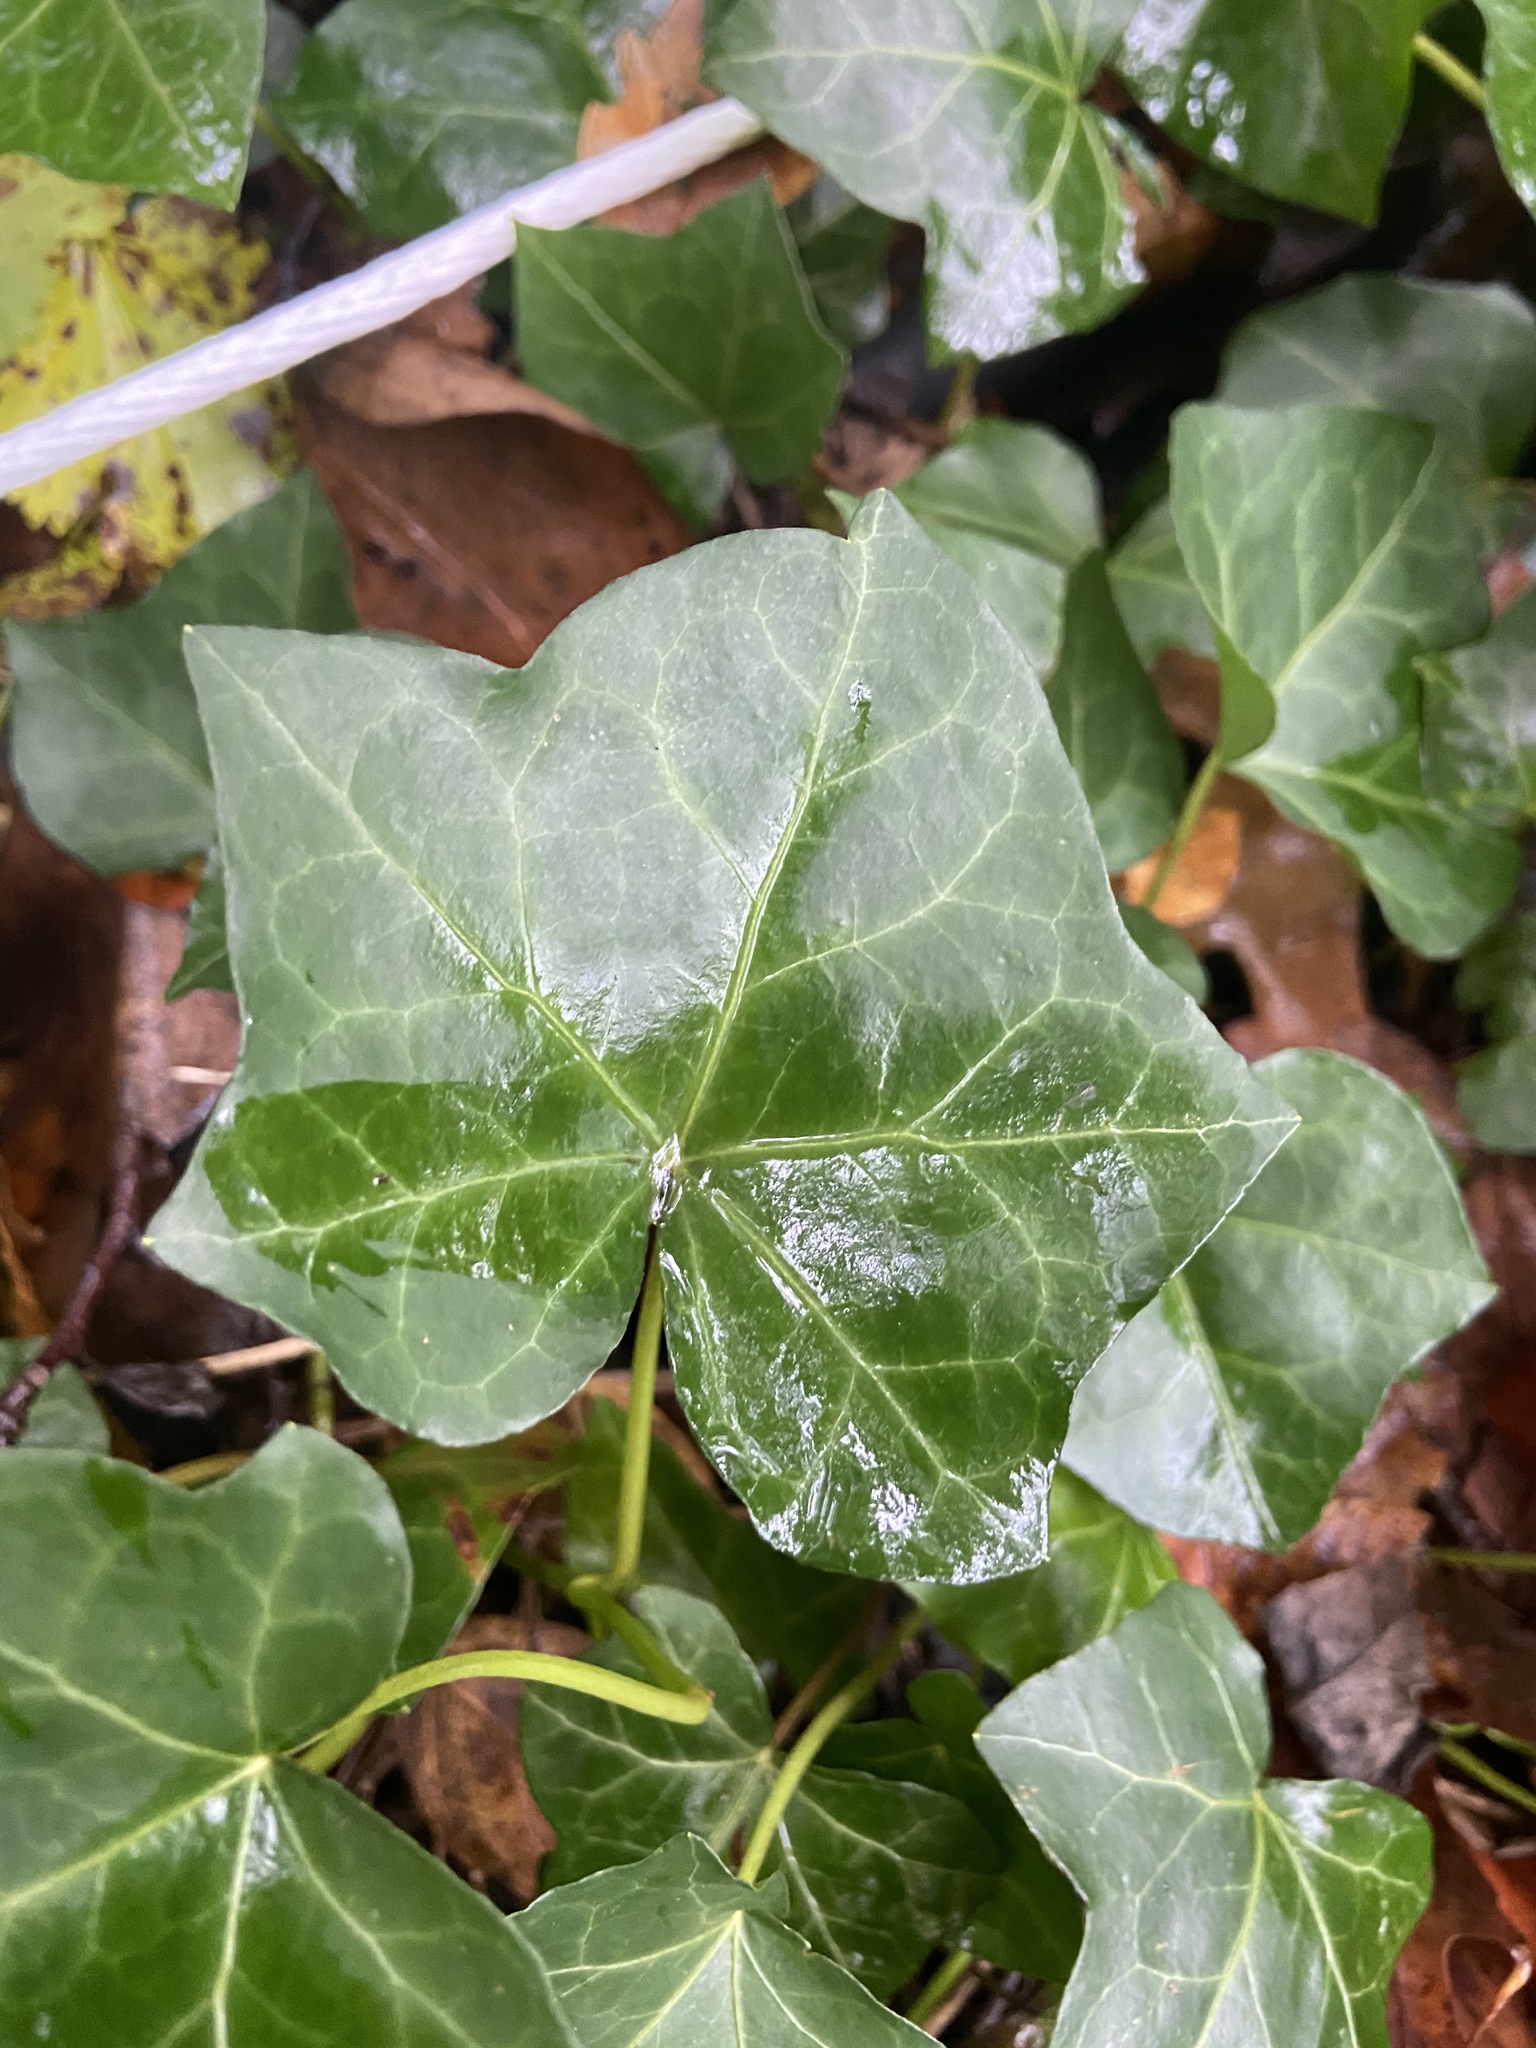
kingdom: Plantae
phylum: Tracheophyta
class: Magnoliopsida
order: Apiales
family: Araliaceae
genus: Hedera
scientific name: Hedera helix
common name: Ivy
